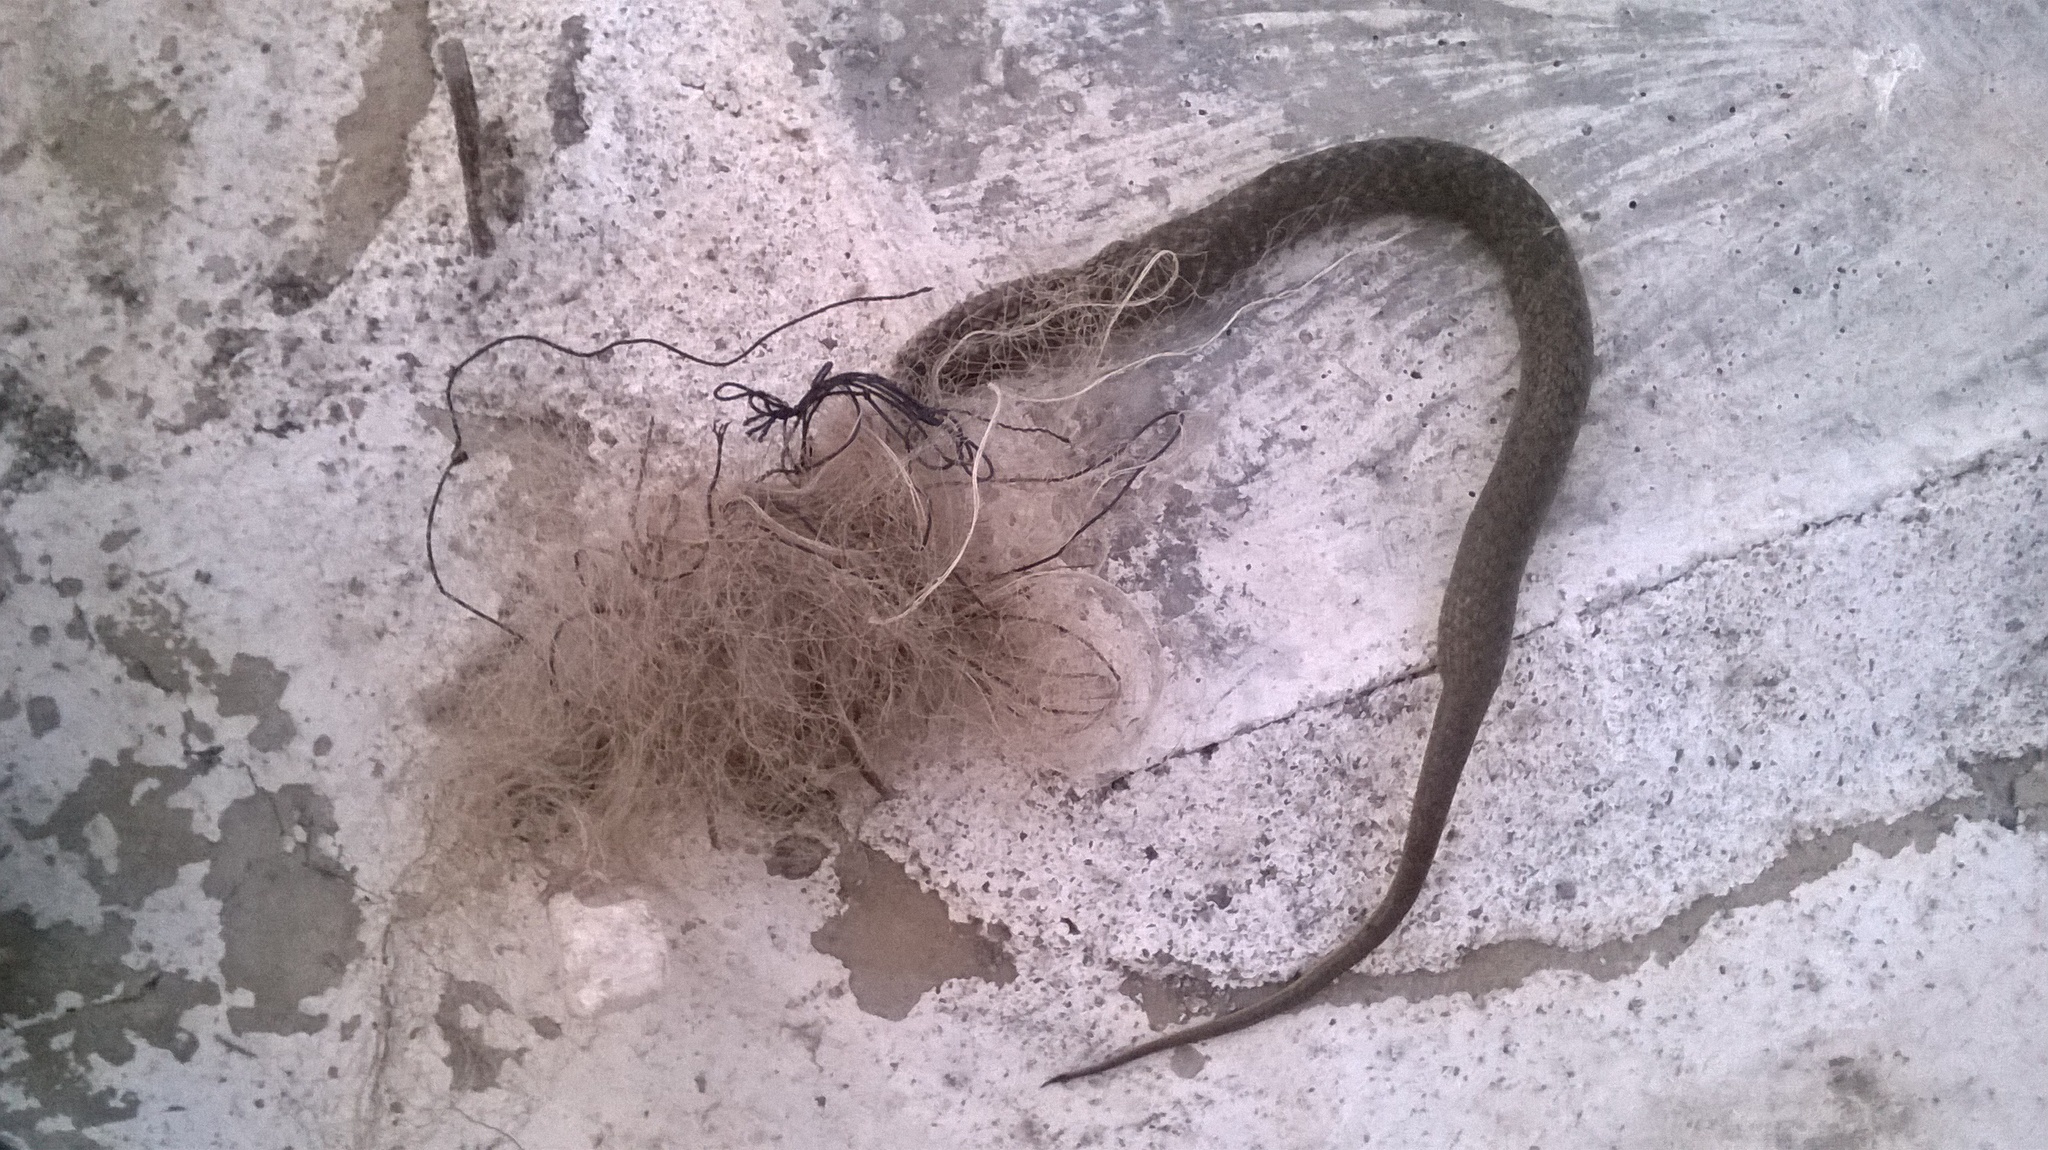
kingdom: Animalia
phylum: Chordata
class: Squamata
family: Colubridae
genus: Fowlea
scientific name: Fowlea piscator
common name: Asiatic water snake
